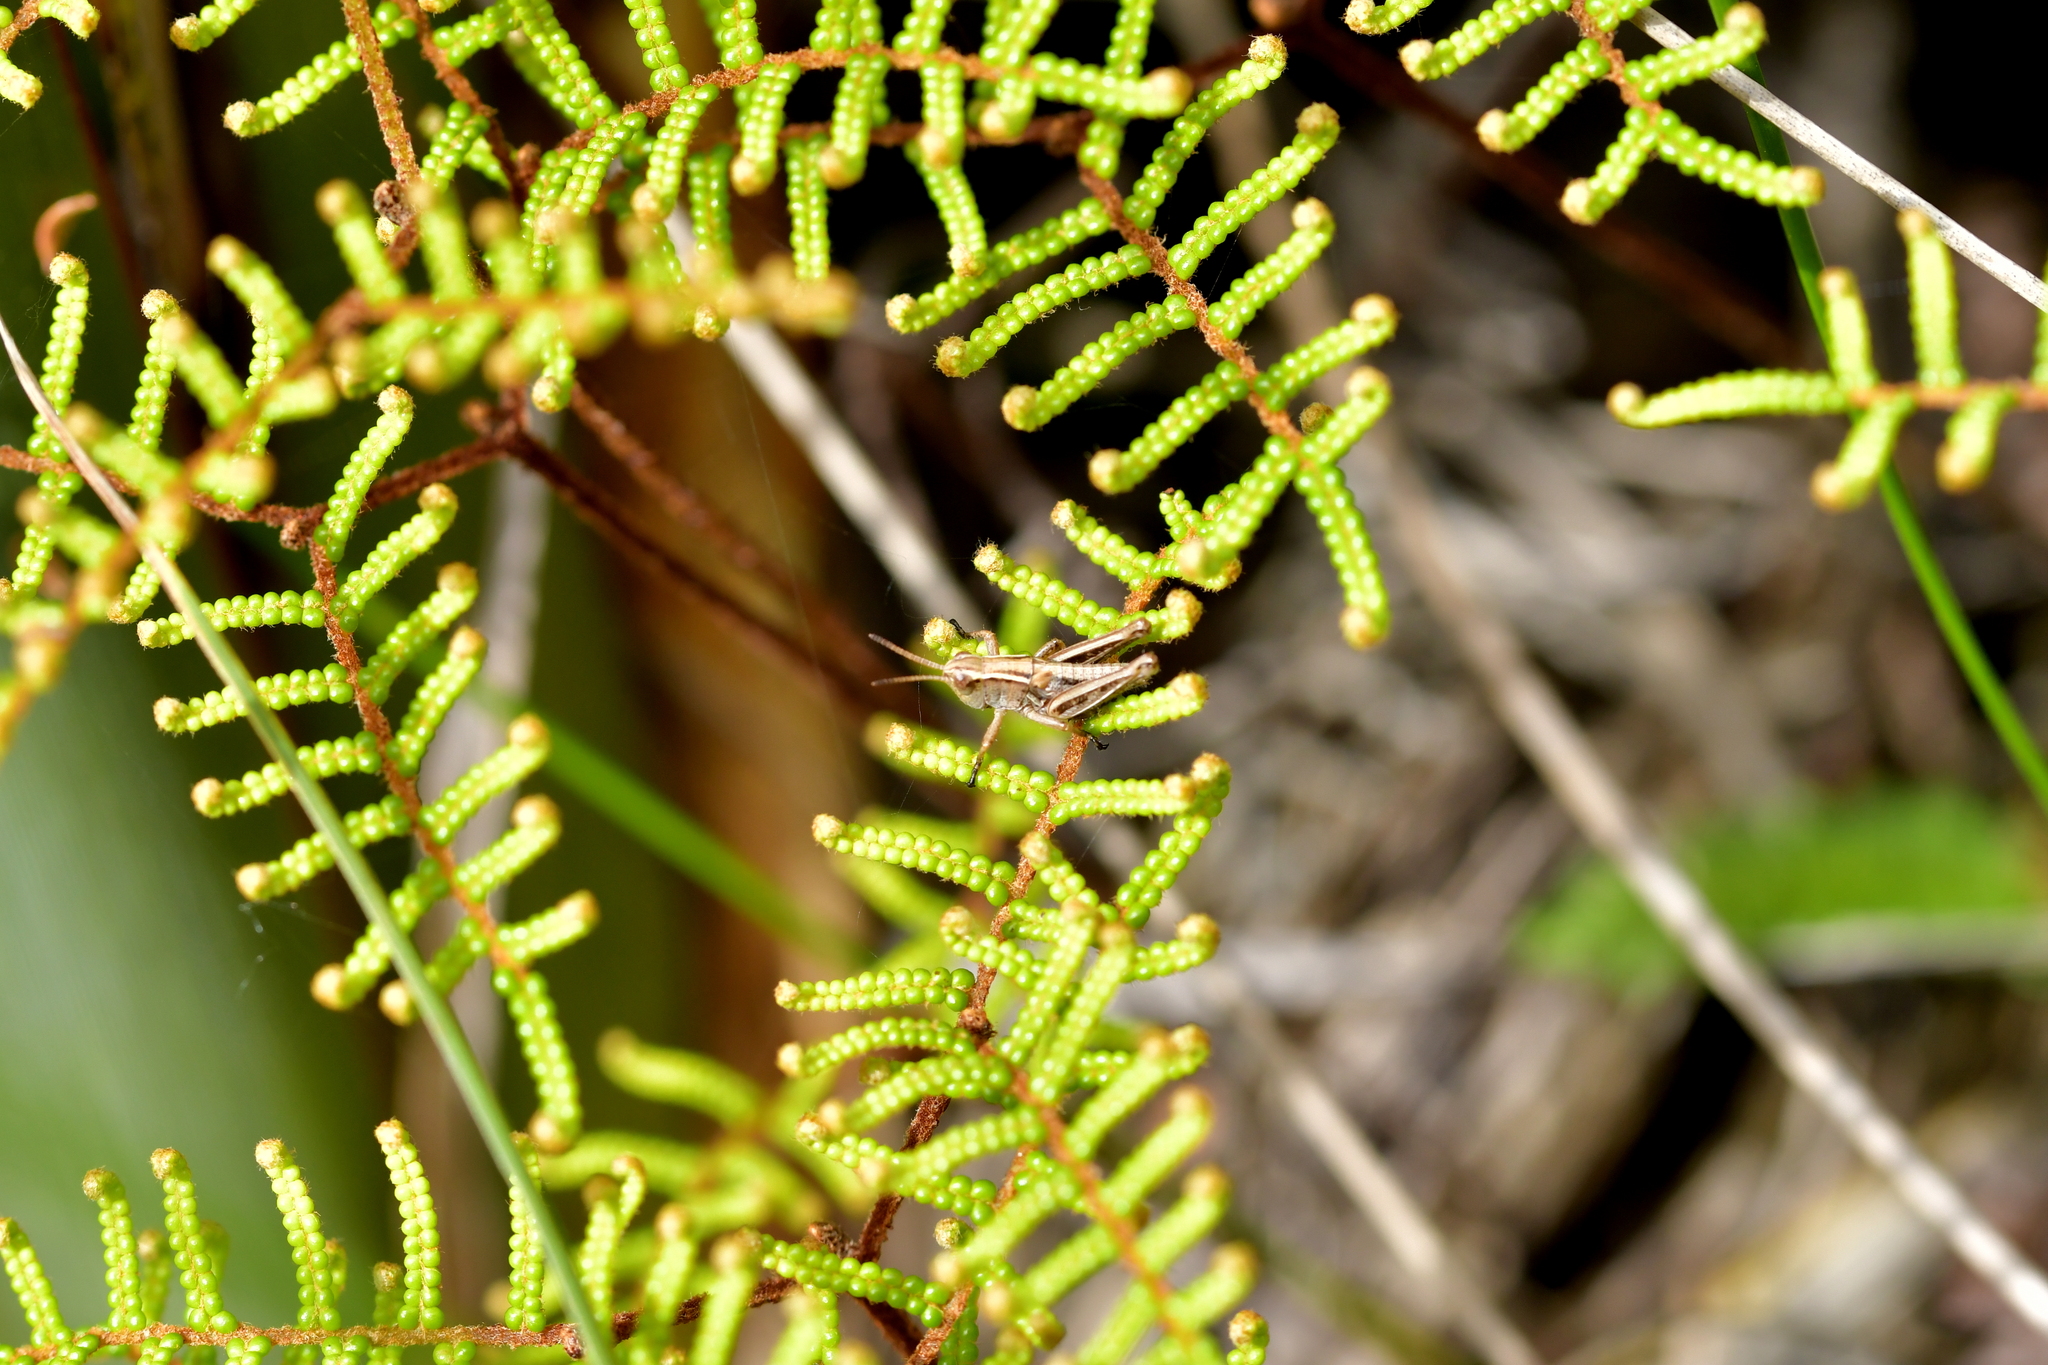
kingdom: Animalia
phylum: Arthropoda
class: Insecta
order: Orthoptera
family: Acrididae
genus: Phaulacridium
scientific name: Phaulacridium marginale
